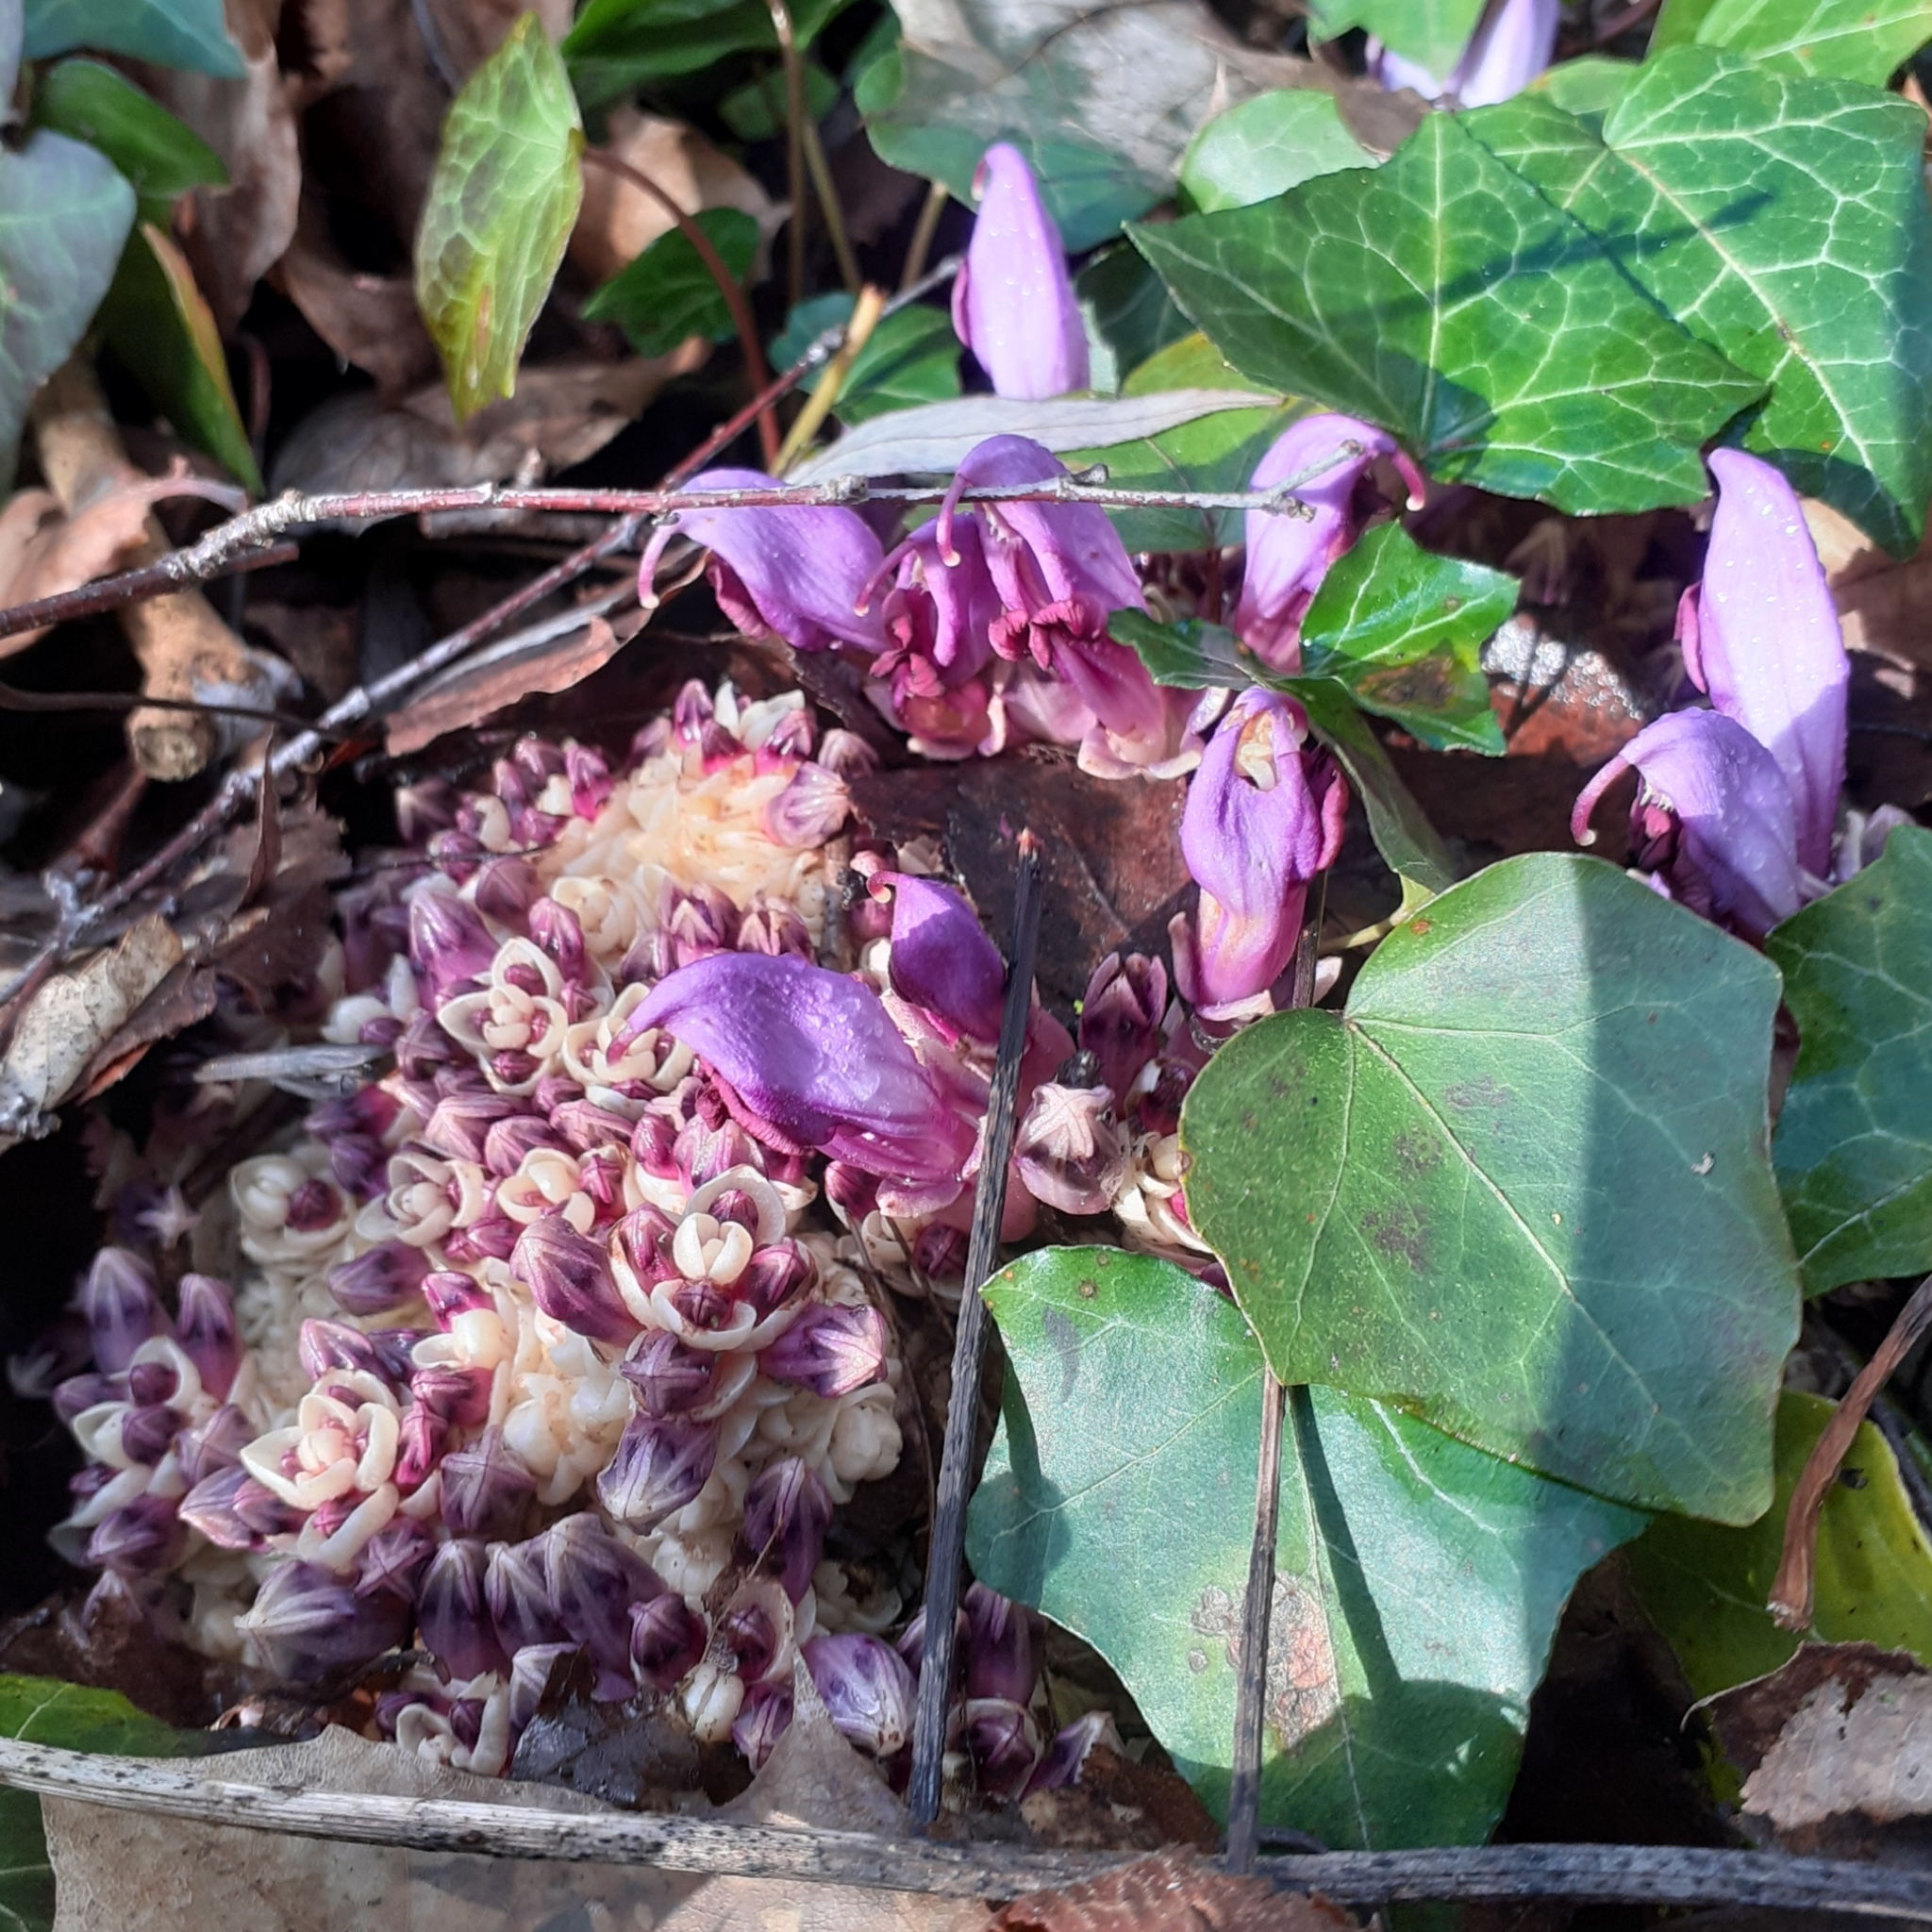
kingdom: Plantae
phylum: Tracheophyta
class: Magnoliopsida
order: Lamiales
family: Orobanchaceae
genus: Lathraea
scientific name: Lathraea clandestina
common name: Purple toothwort
